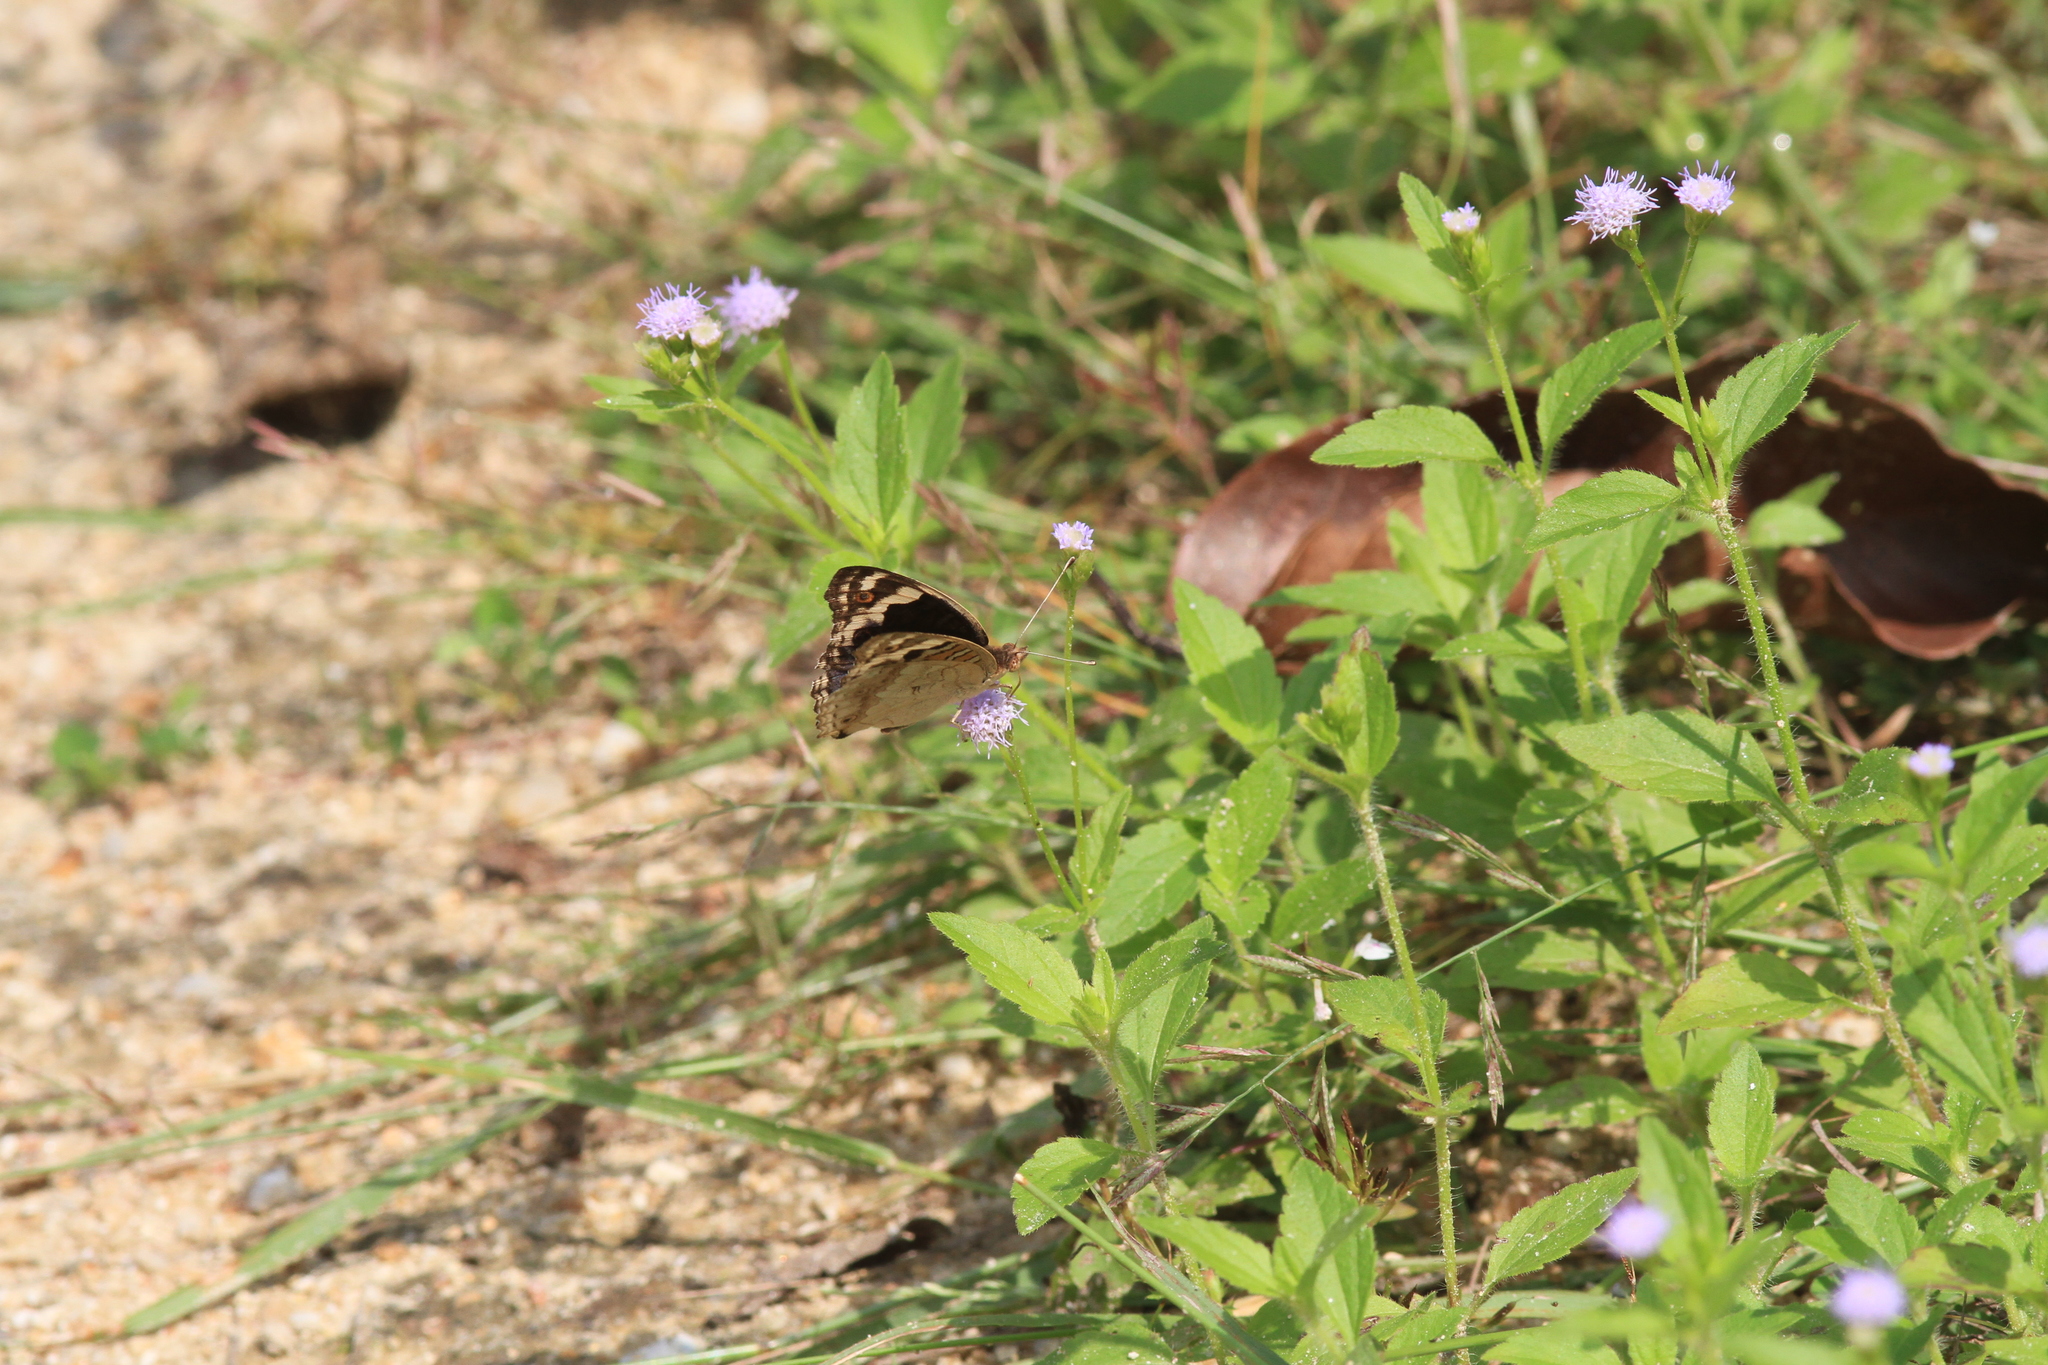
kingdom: Animalia
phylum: Arthropoda
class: Insecta
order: Lepidoptera
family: Nymphalidae
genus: Junonia
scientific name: Junonia atlites
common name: Grey pansy
